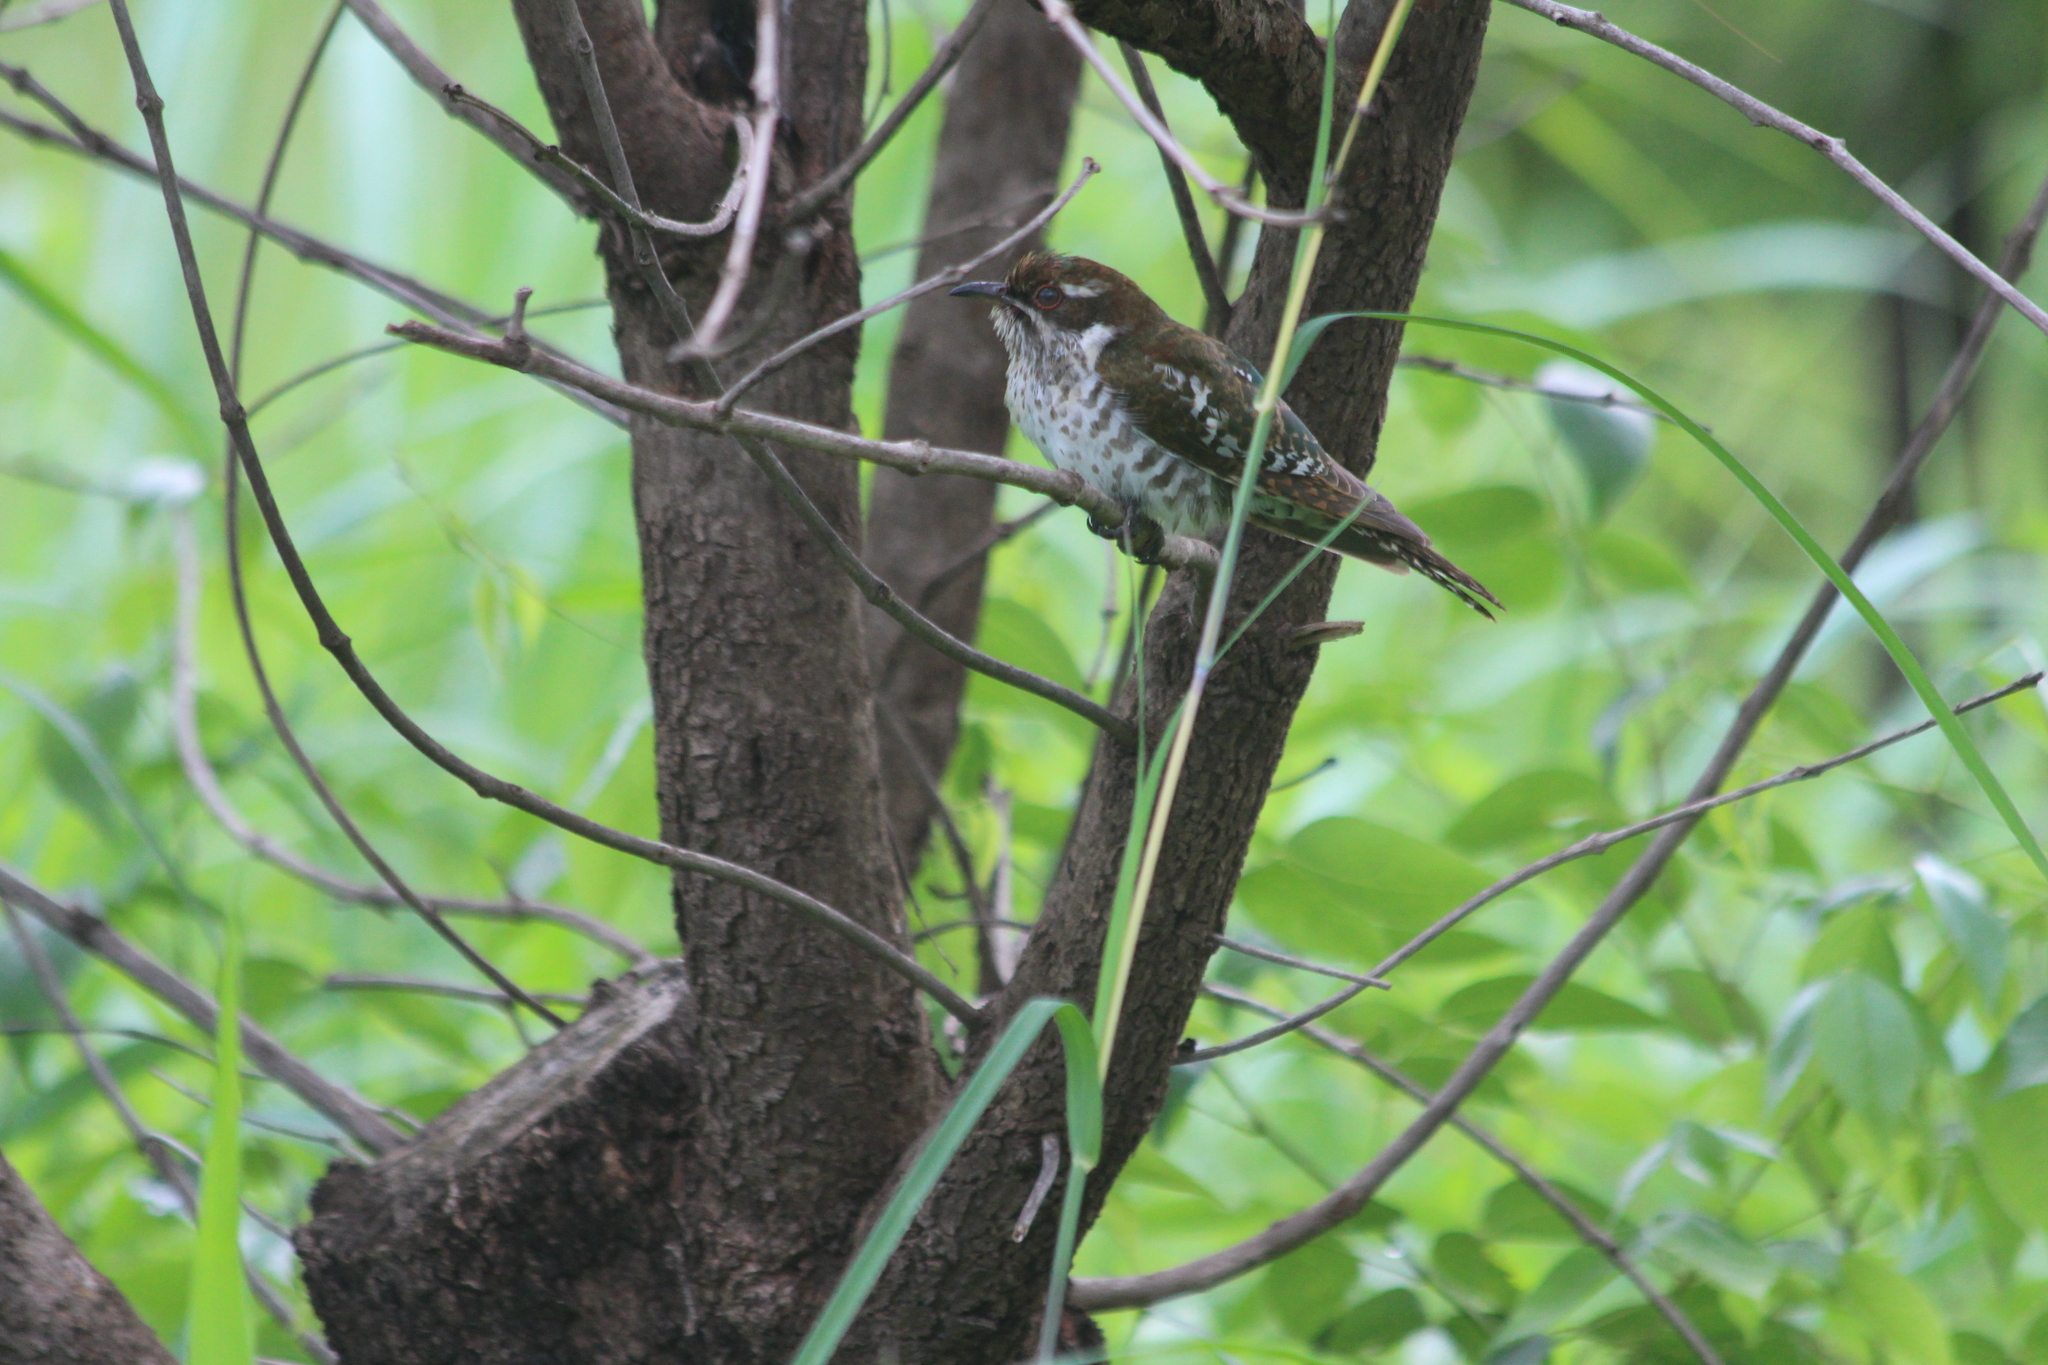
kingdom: Animalia
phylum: Chordata
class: Aves
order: Cuculiformes
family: Cuculidae
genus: Chrysococcyx
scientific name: Chrysococcyx caprius
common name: Diederik cuckoo
